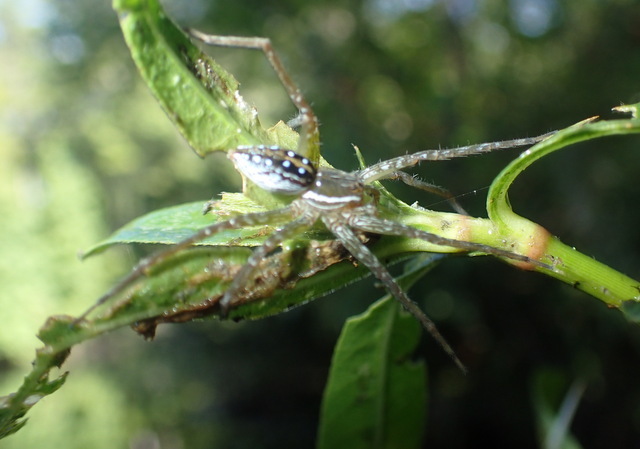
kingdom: Animalia
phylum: Arthropoda
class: Arachnida
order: Araneae
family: Pisauridae
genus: Dolomedes
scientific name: Dolomedes triton
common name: Six-spotted fishing spider
